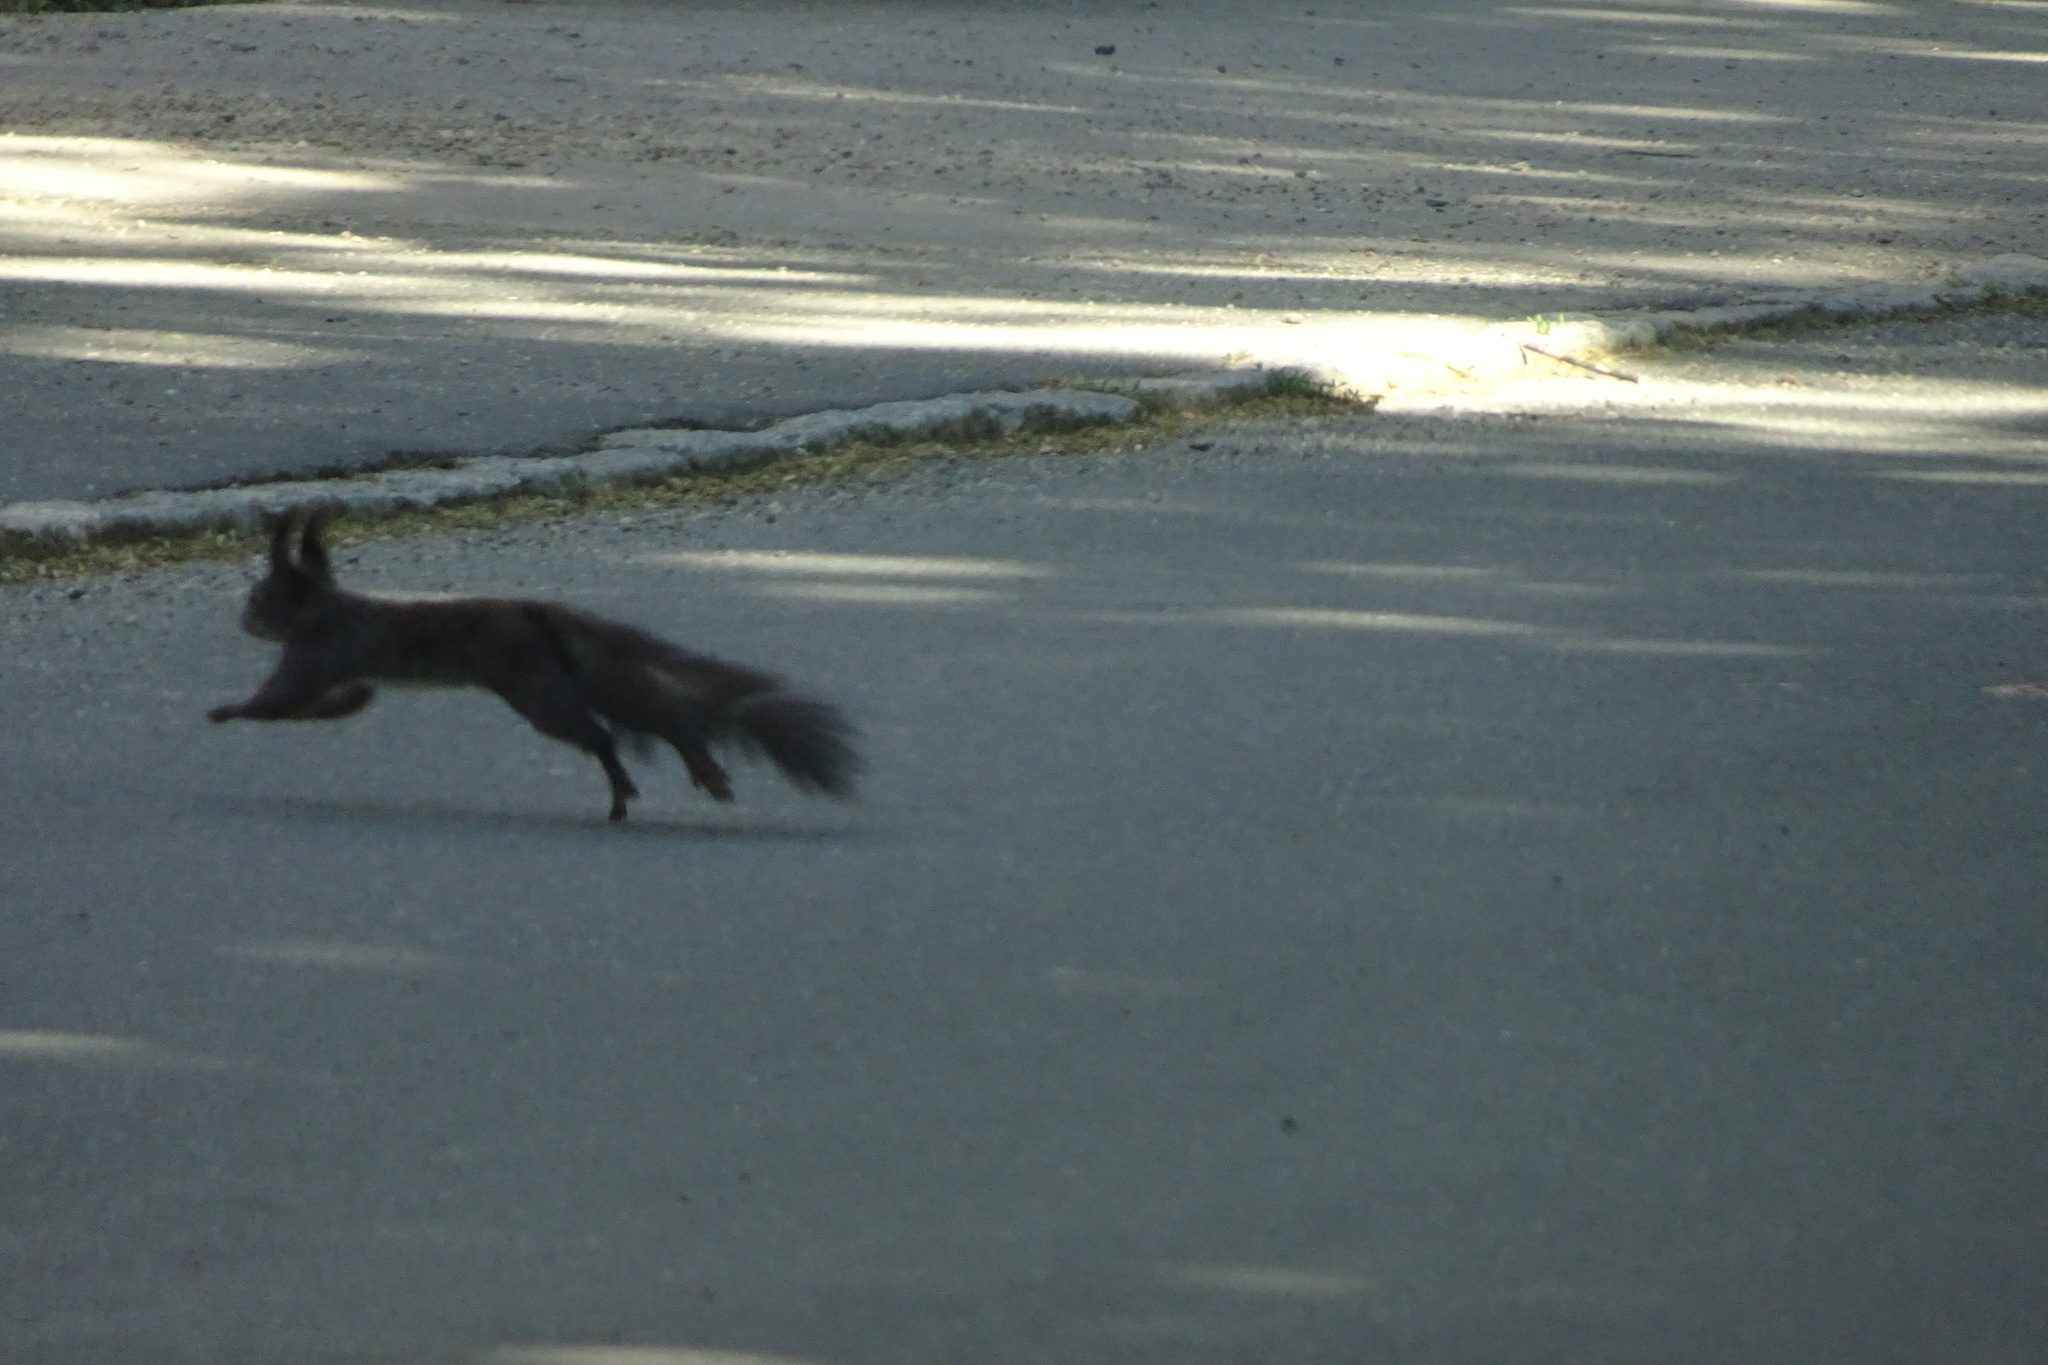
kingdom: Animalia
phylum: Chordata
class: Mammalia
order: Rodentia
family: Sciuridae
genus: Sciurus
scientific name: Sciurus vulgaris
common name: Eurasian red squirrel
